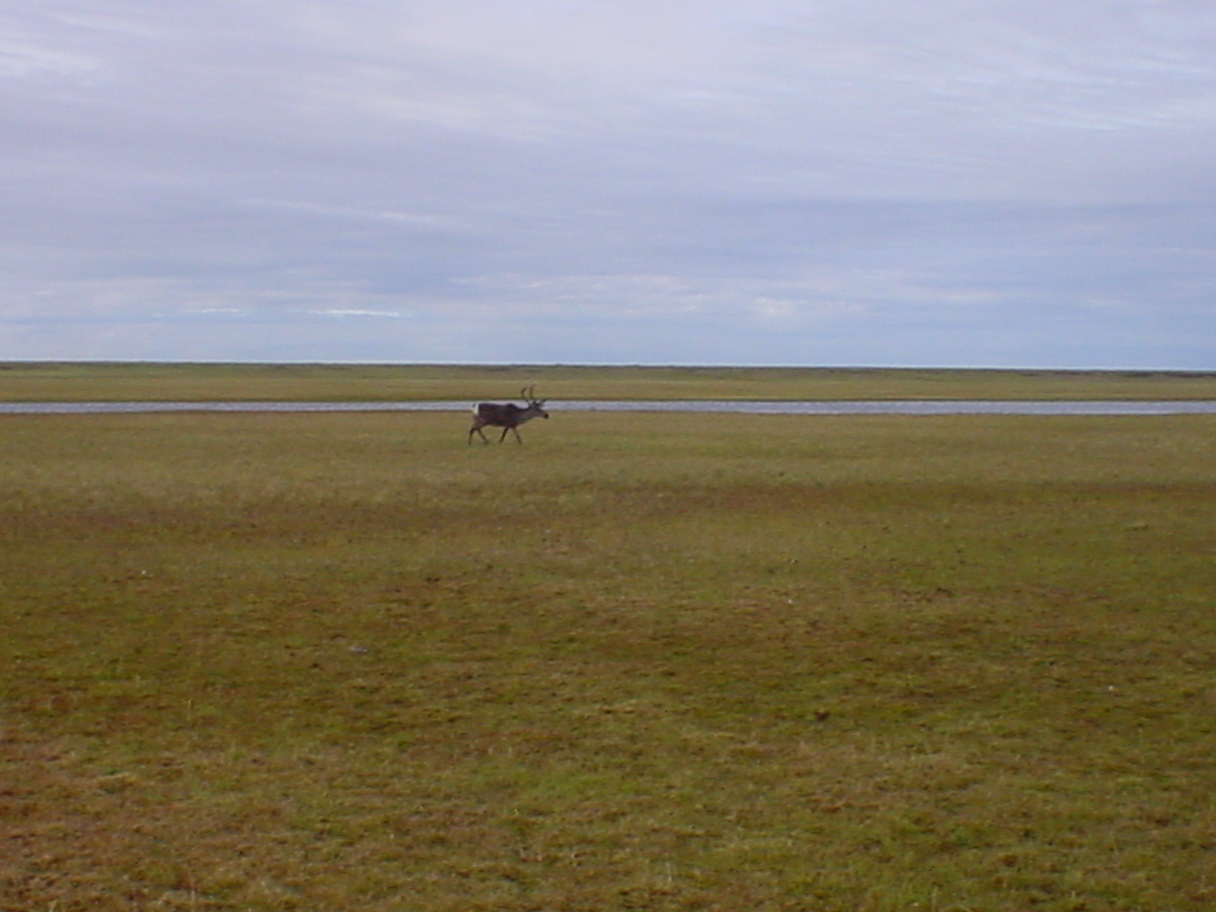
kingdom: Animalia
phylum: Chordata
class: Mammalia
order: Artiodactyla
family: Cervidae
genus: Rangifer
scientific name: Rangifer tarandus
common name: Reindeer
